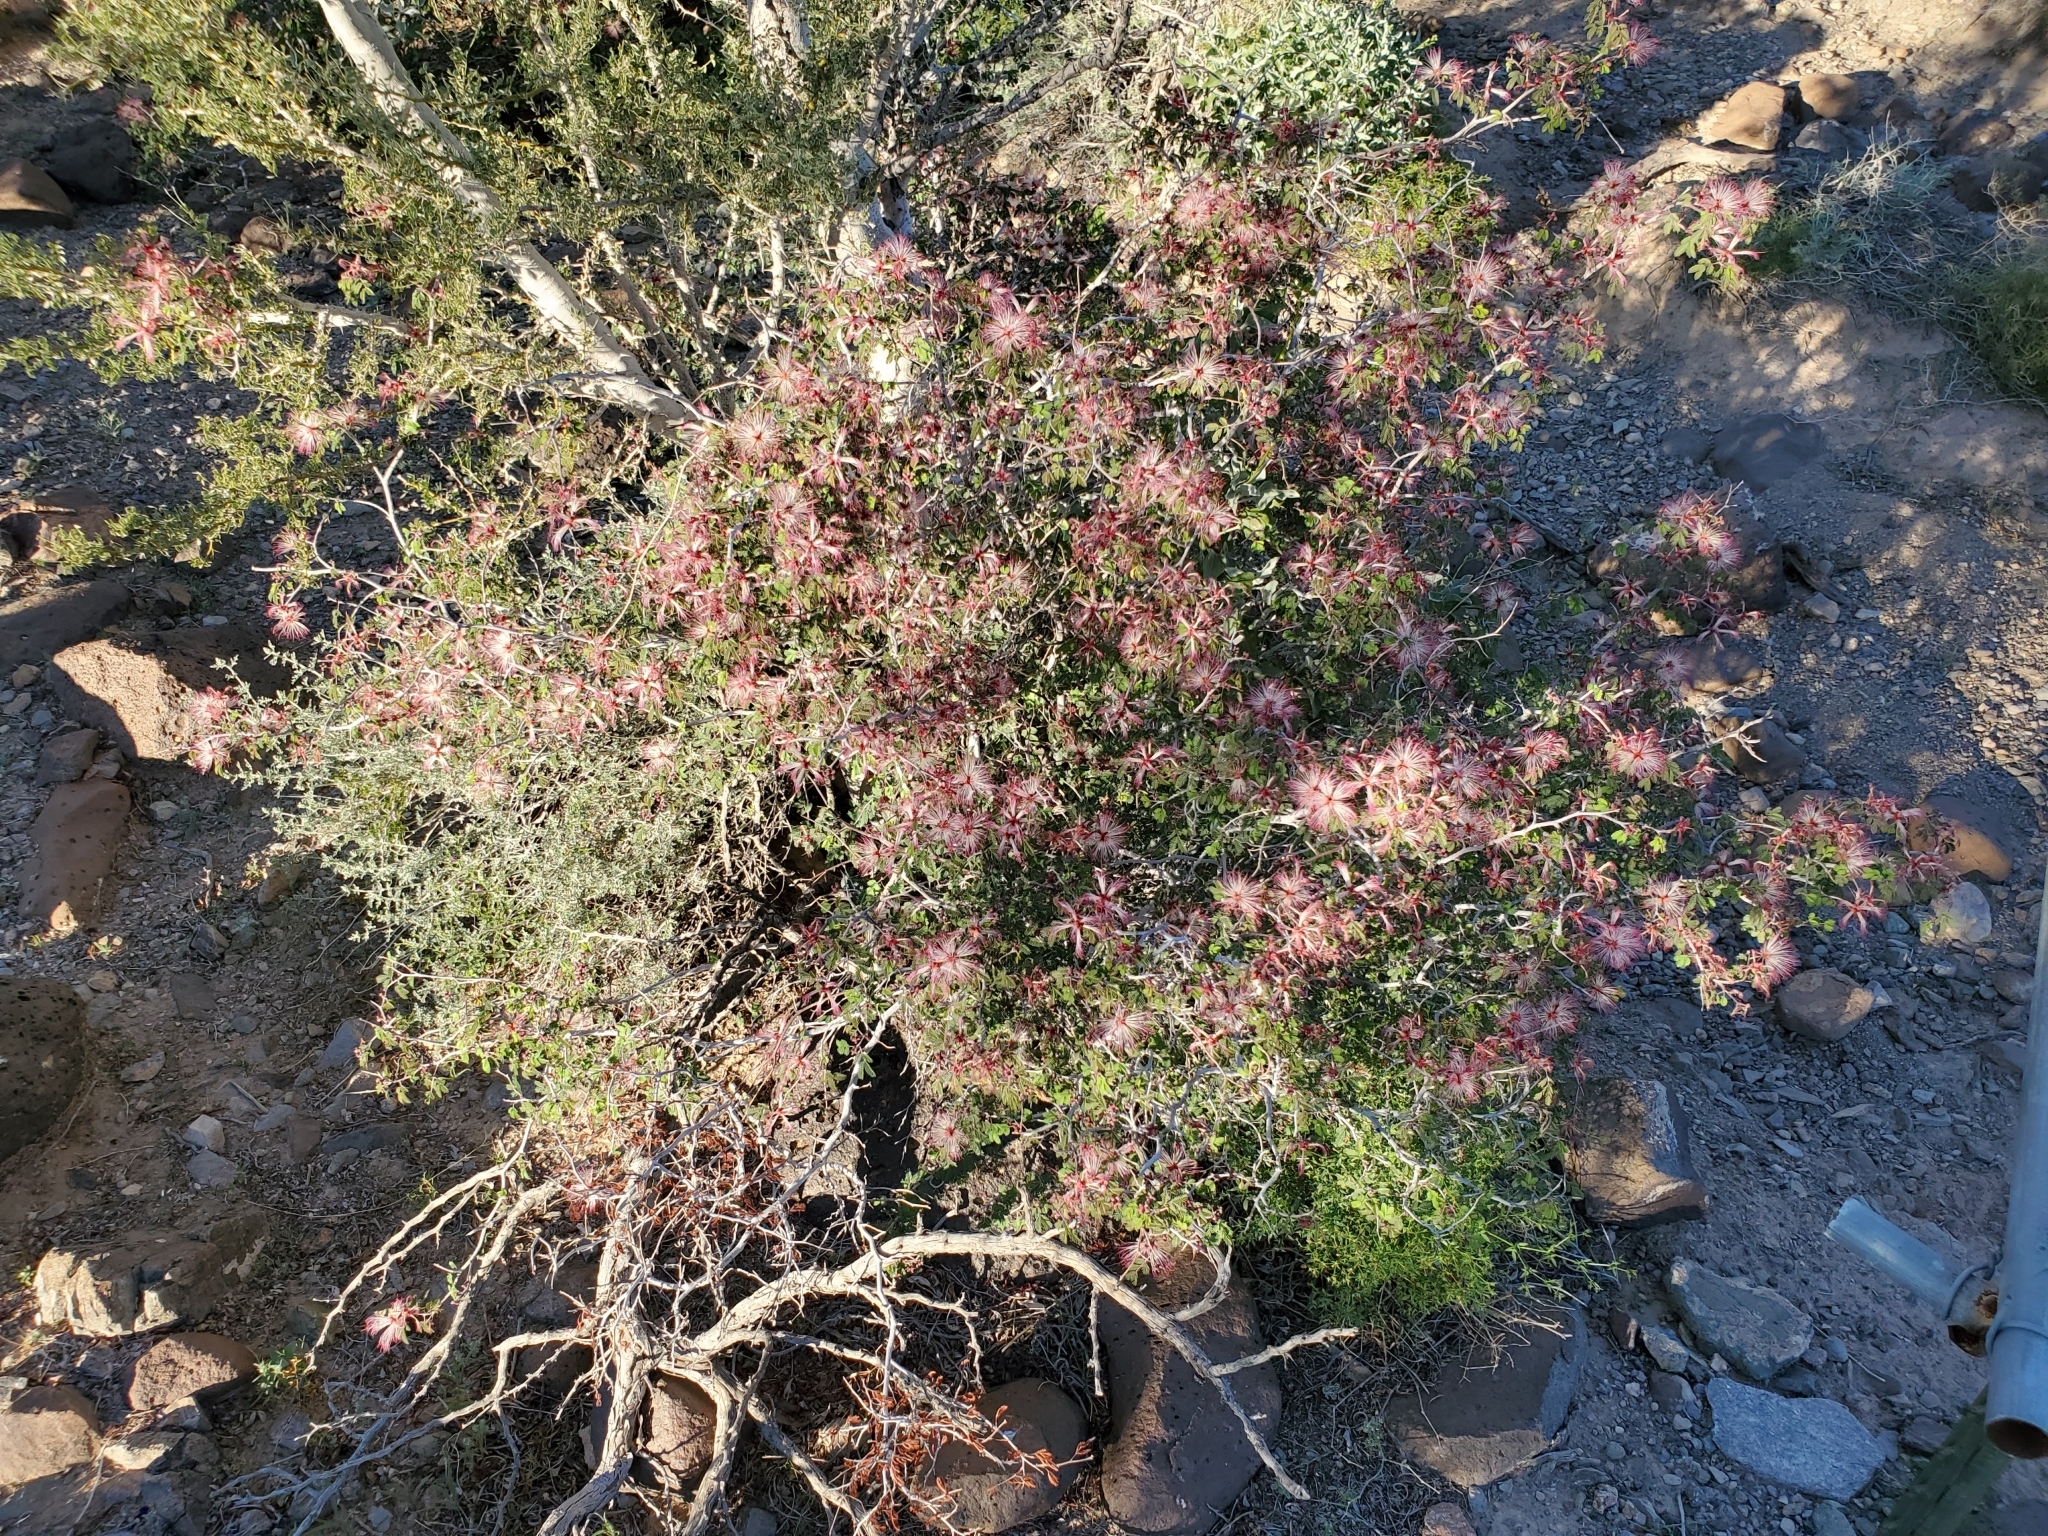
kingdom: Plantae
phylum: Tracheophyta
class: Magnoliopsida
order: Fabales
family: Fabaceae
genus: Calliandra
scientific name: Calliandra eriophylla
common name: Fairy-duster
